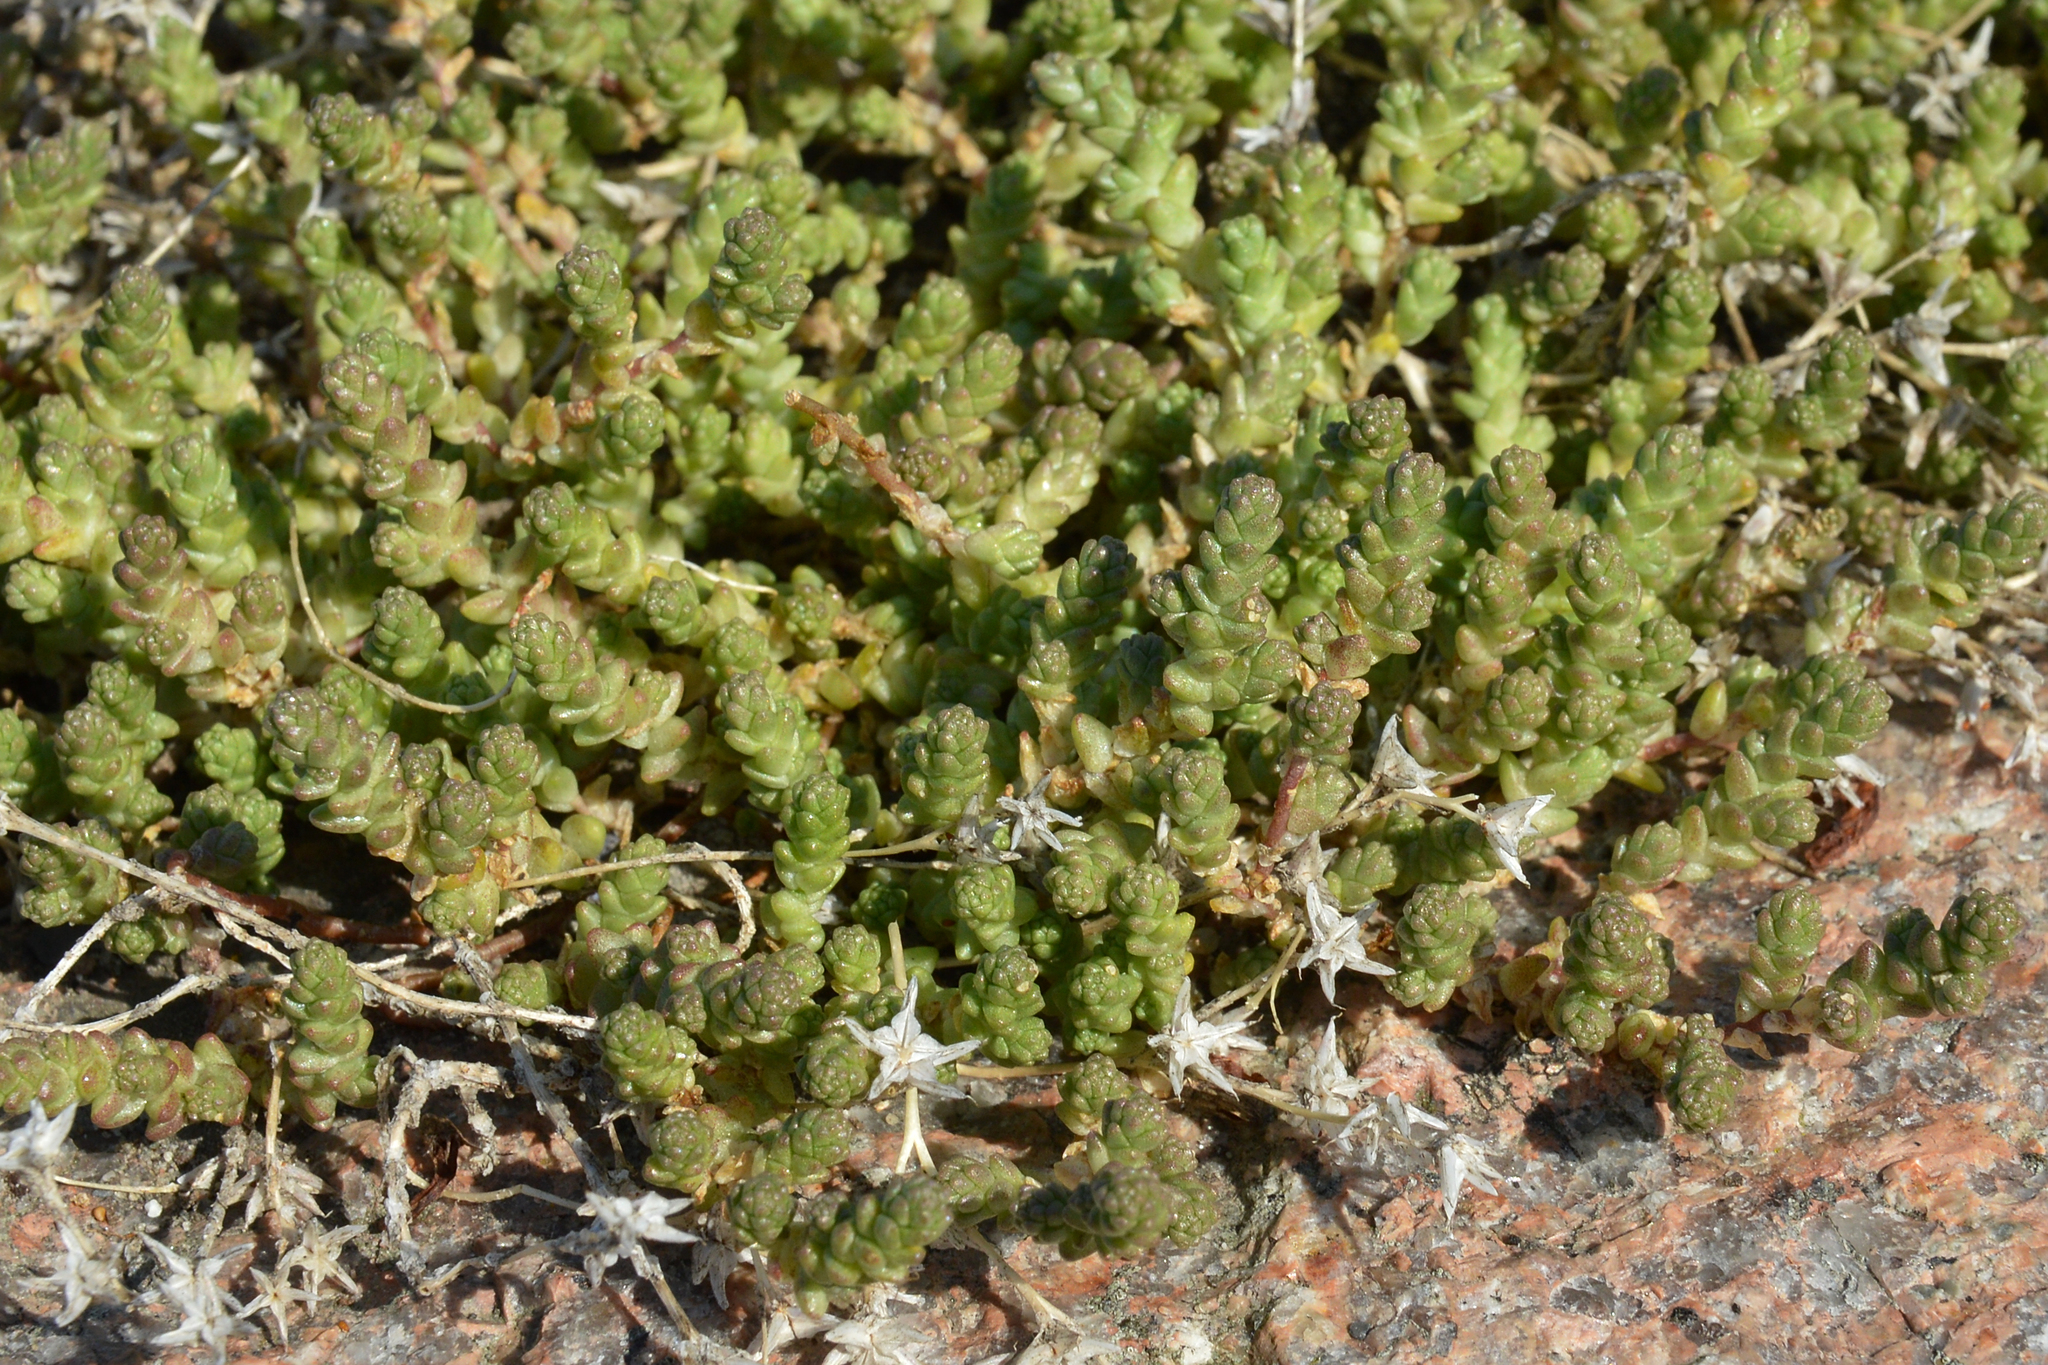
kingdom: Plantae
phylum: Tracheophyta
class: Magnoliopsida
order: Saxifragales
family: Crassulaceae
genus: Sedum
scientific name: Sedum acre
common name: Biting stonecrop
